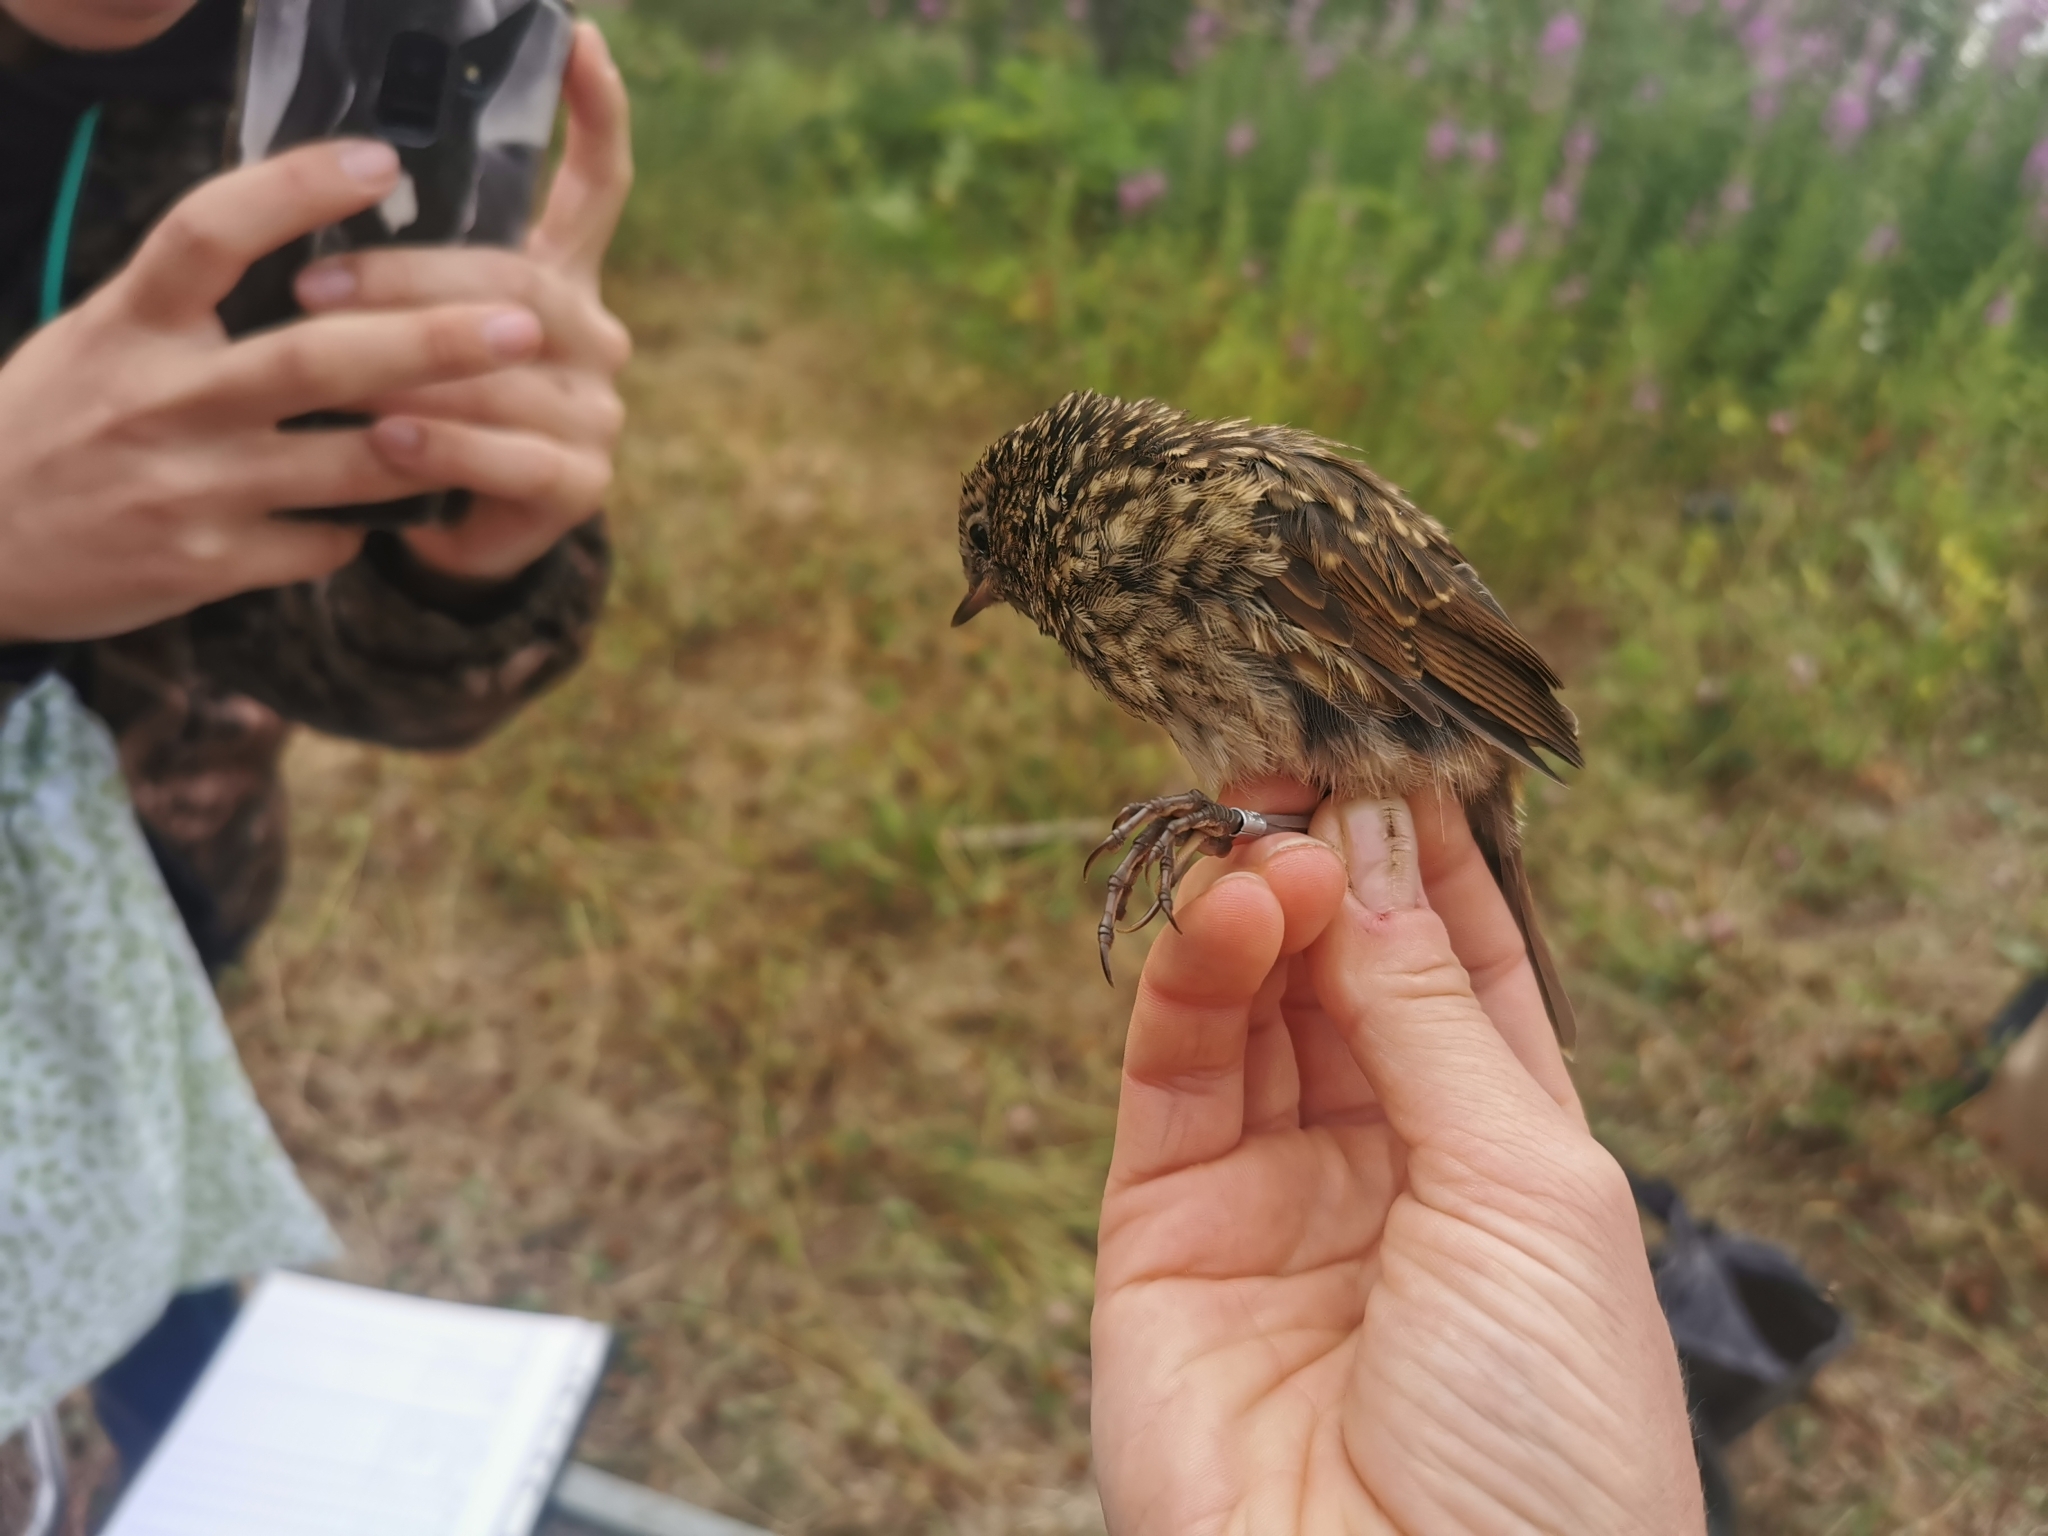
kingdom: Animalia
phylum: Chordata
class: Aves
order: Passeriformes
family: Muscicapidae
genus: Luscinia
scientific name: Luscinia calliope
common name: Siberian rubythroat
